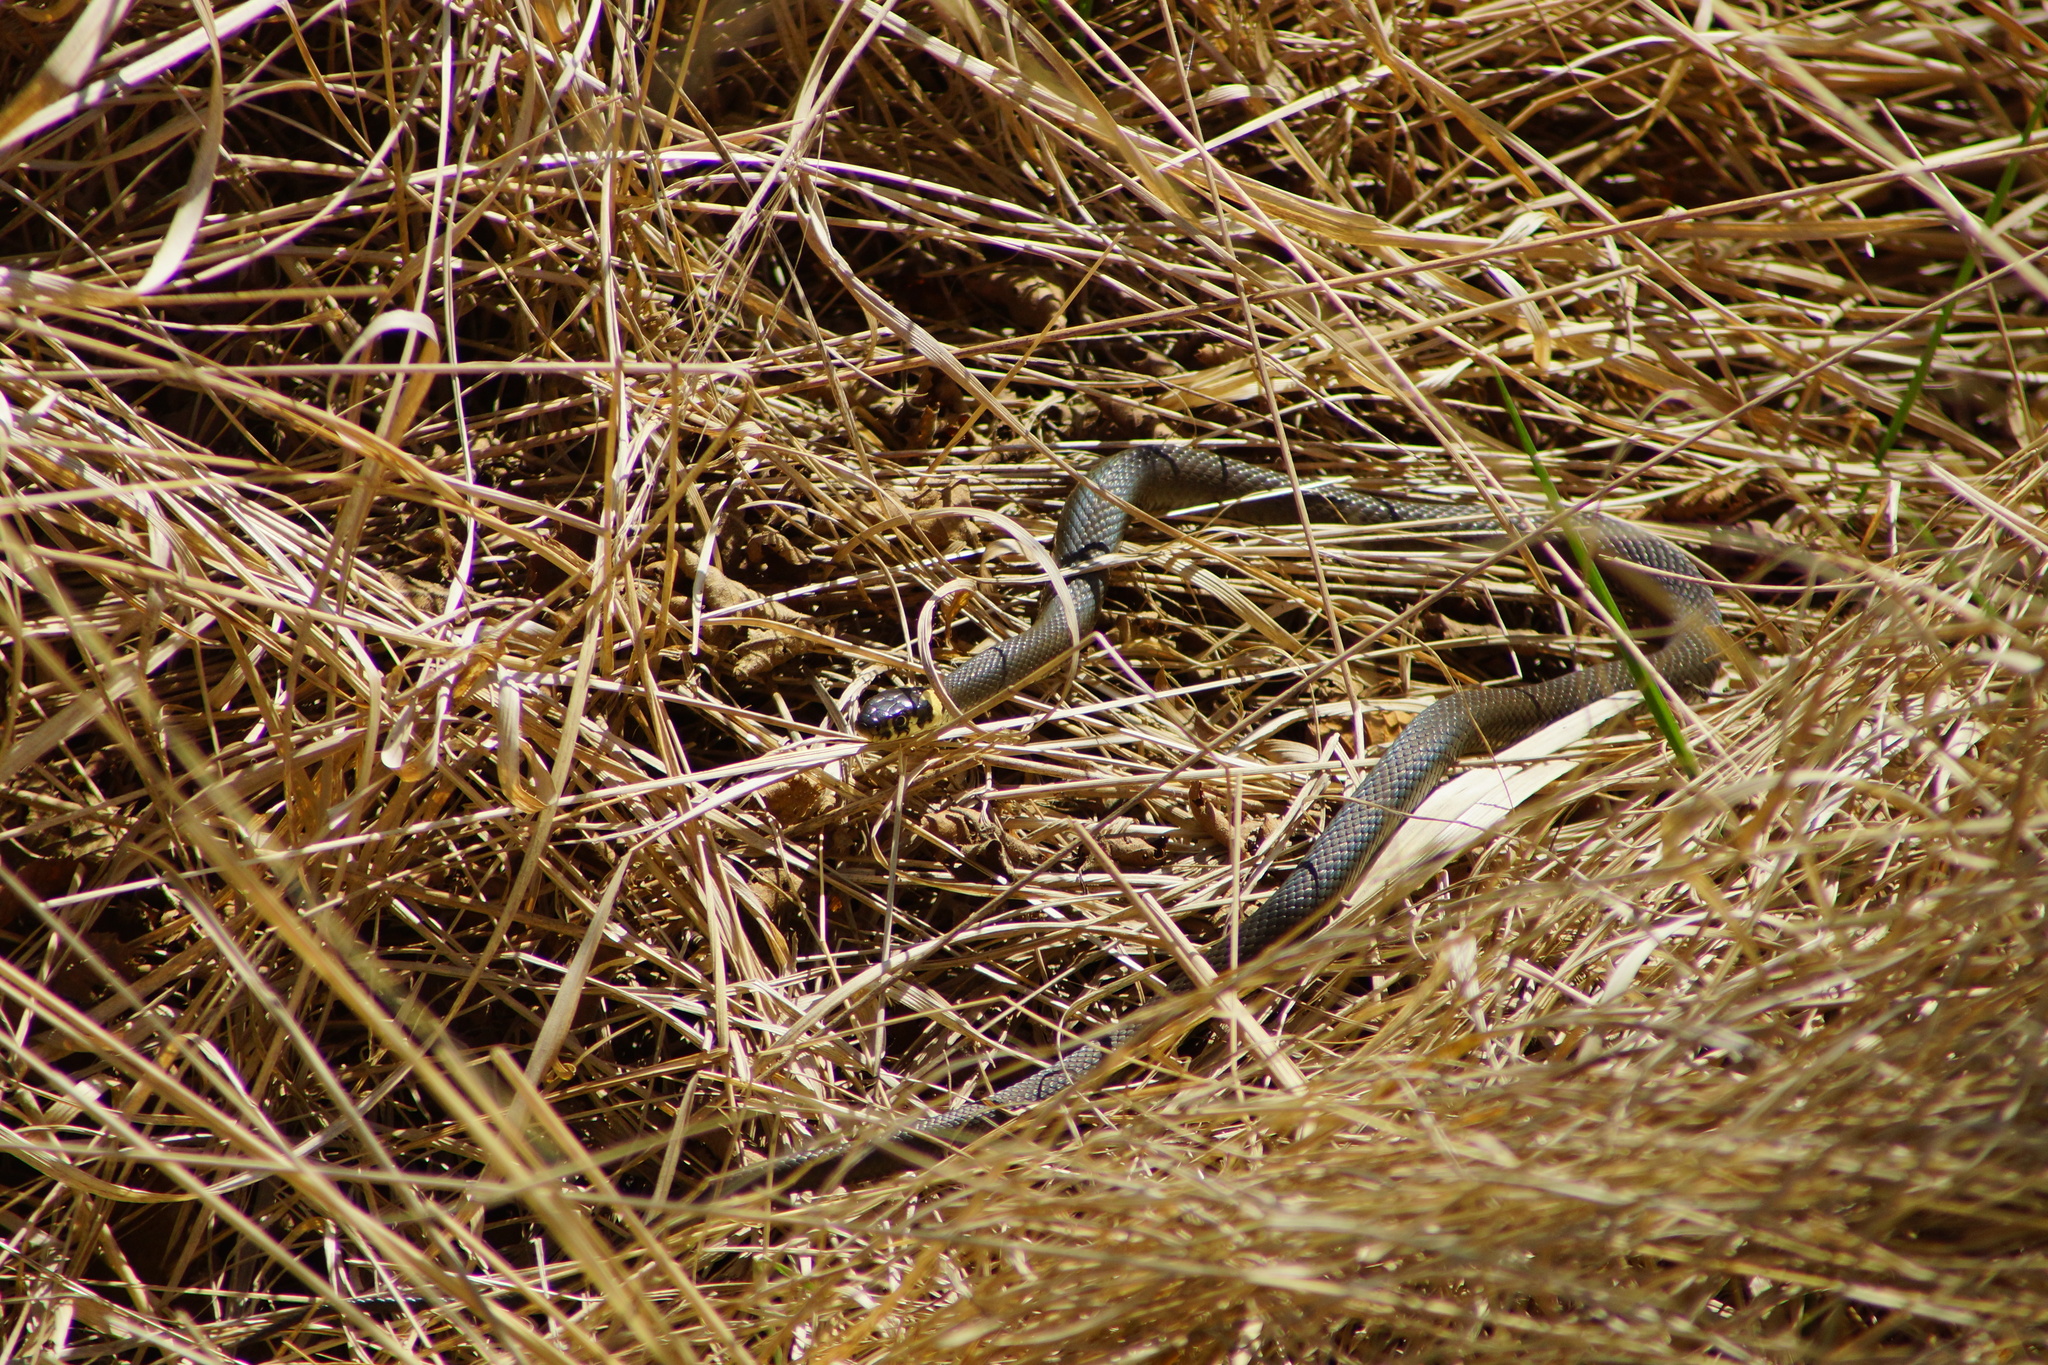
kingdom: Animalia
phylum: Chordata
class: Squamata
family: Colubridae
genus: Natrix
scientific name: Natrix natrix
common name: Grass snake
